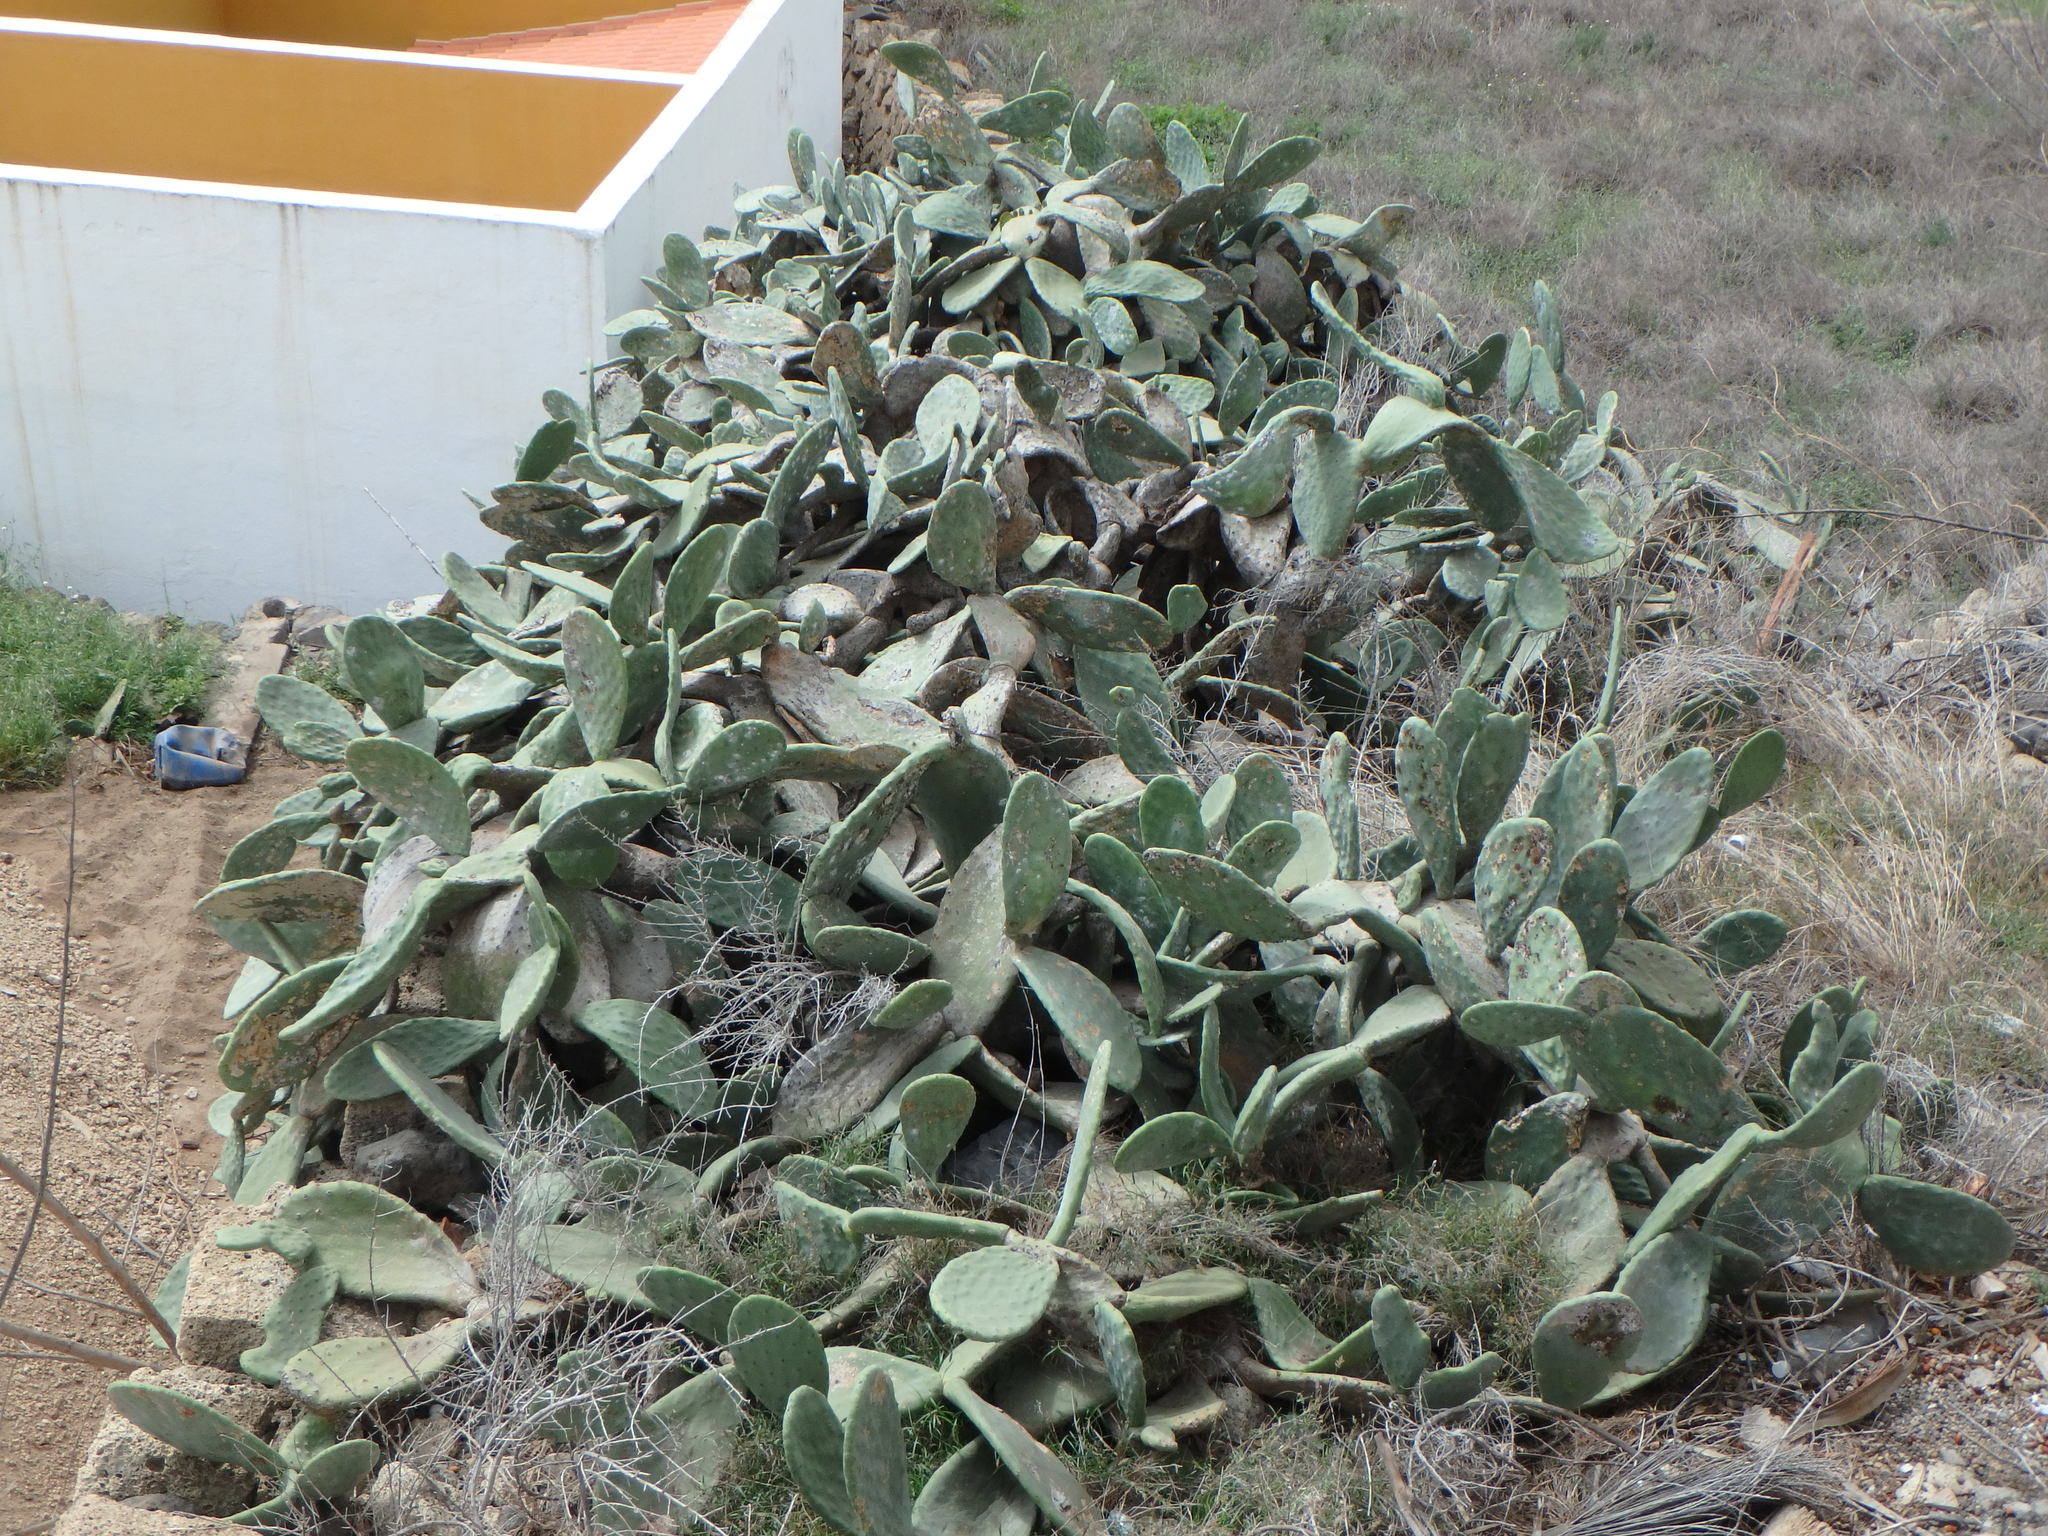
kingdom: Plantae
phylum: Tracheophyta
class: Magnoliopsida
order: Caryophyllales
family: Cactaceae
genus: Opuntia
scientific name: Opuntia ficus-indica
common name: Barbary fig
